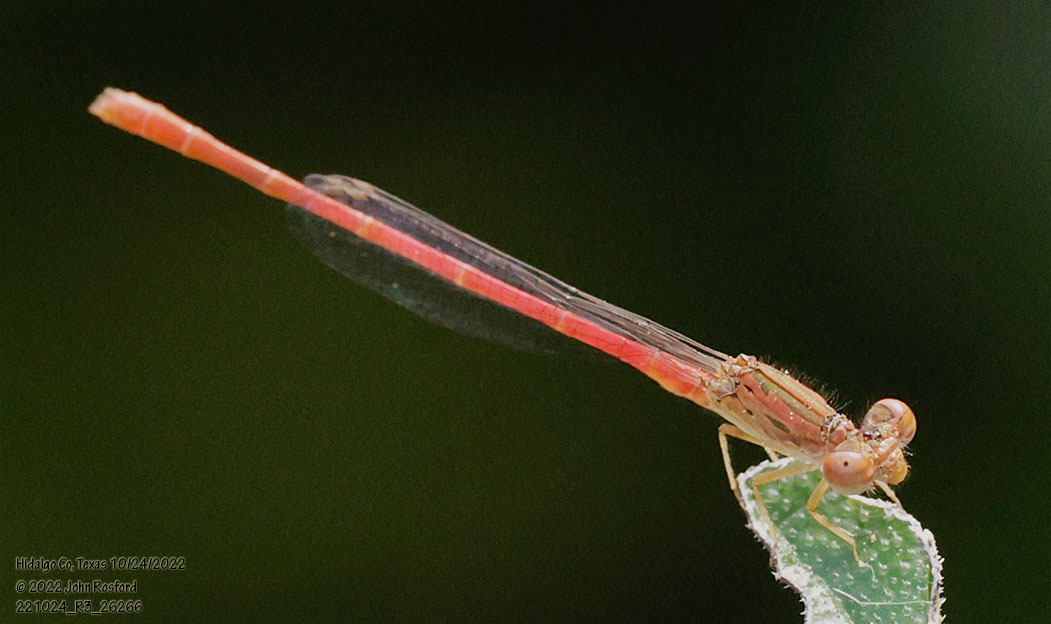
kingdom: Animalia
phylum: Arthropoda
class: Insecta
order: Odonata
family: Coenagrionidae
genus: Telebasis
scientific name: Telebasis salva
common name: Desert firetail
